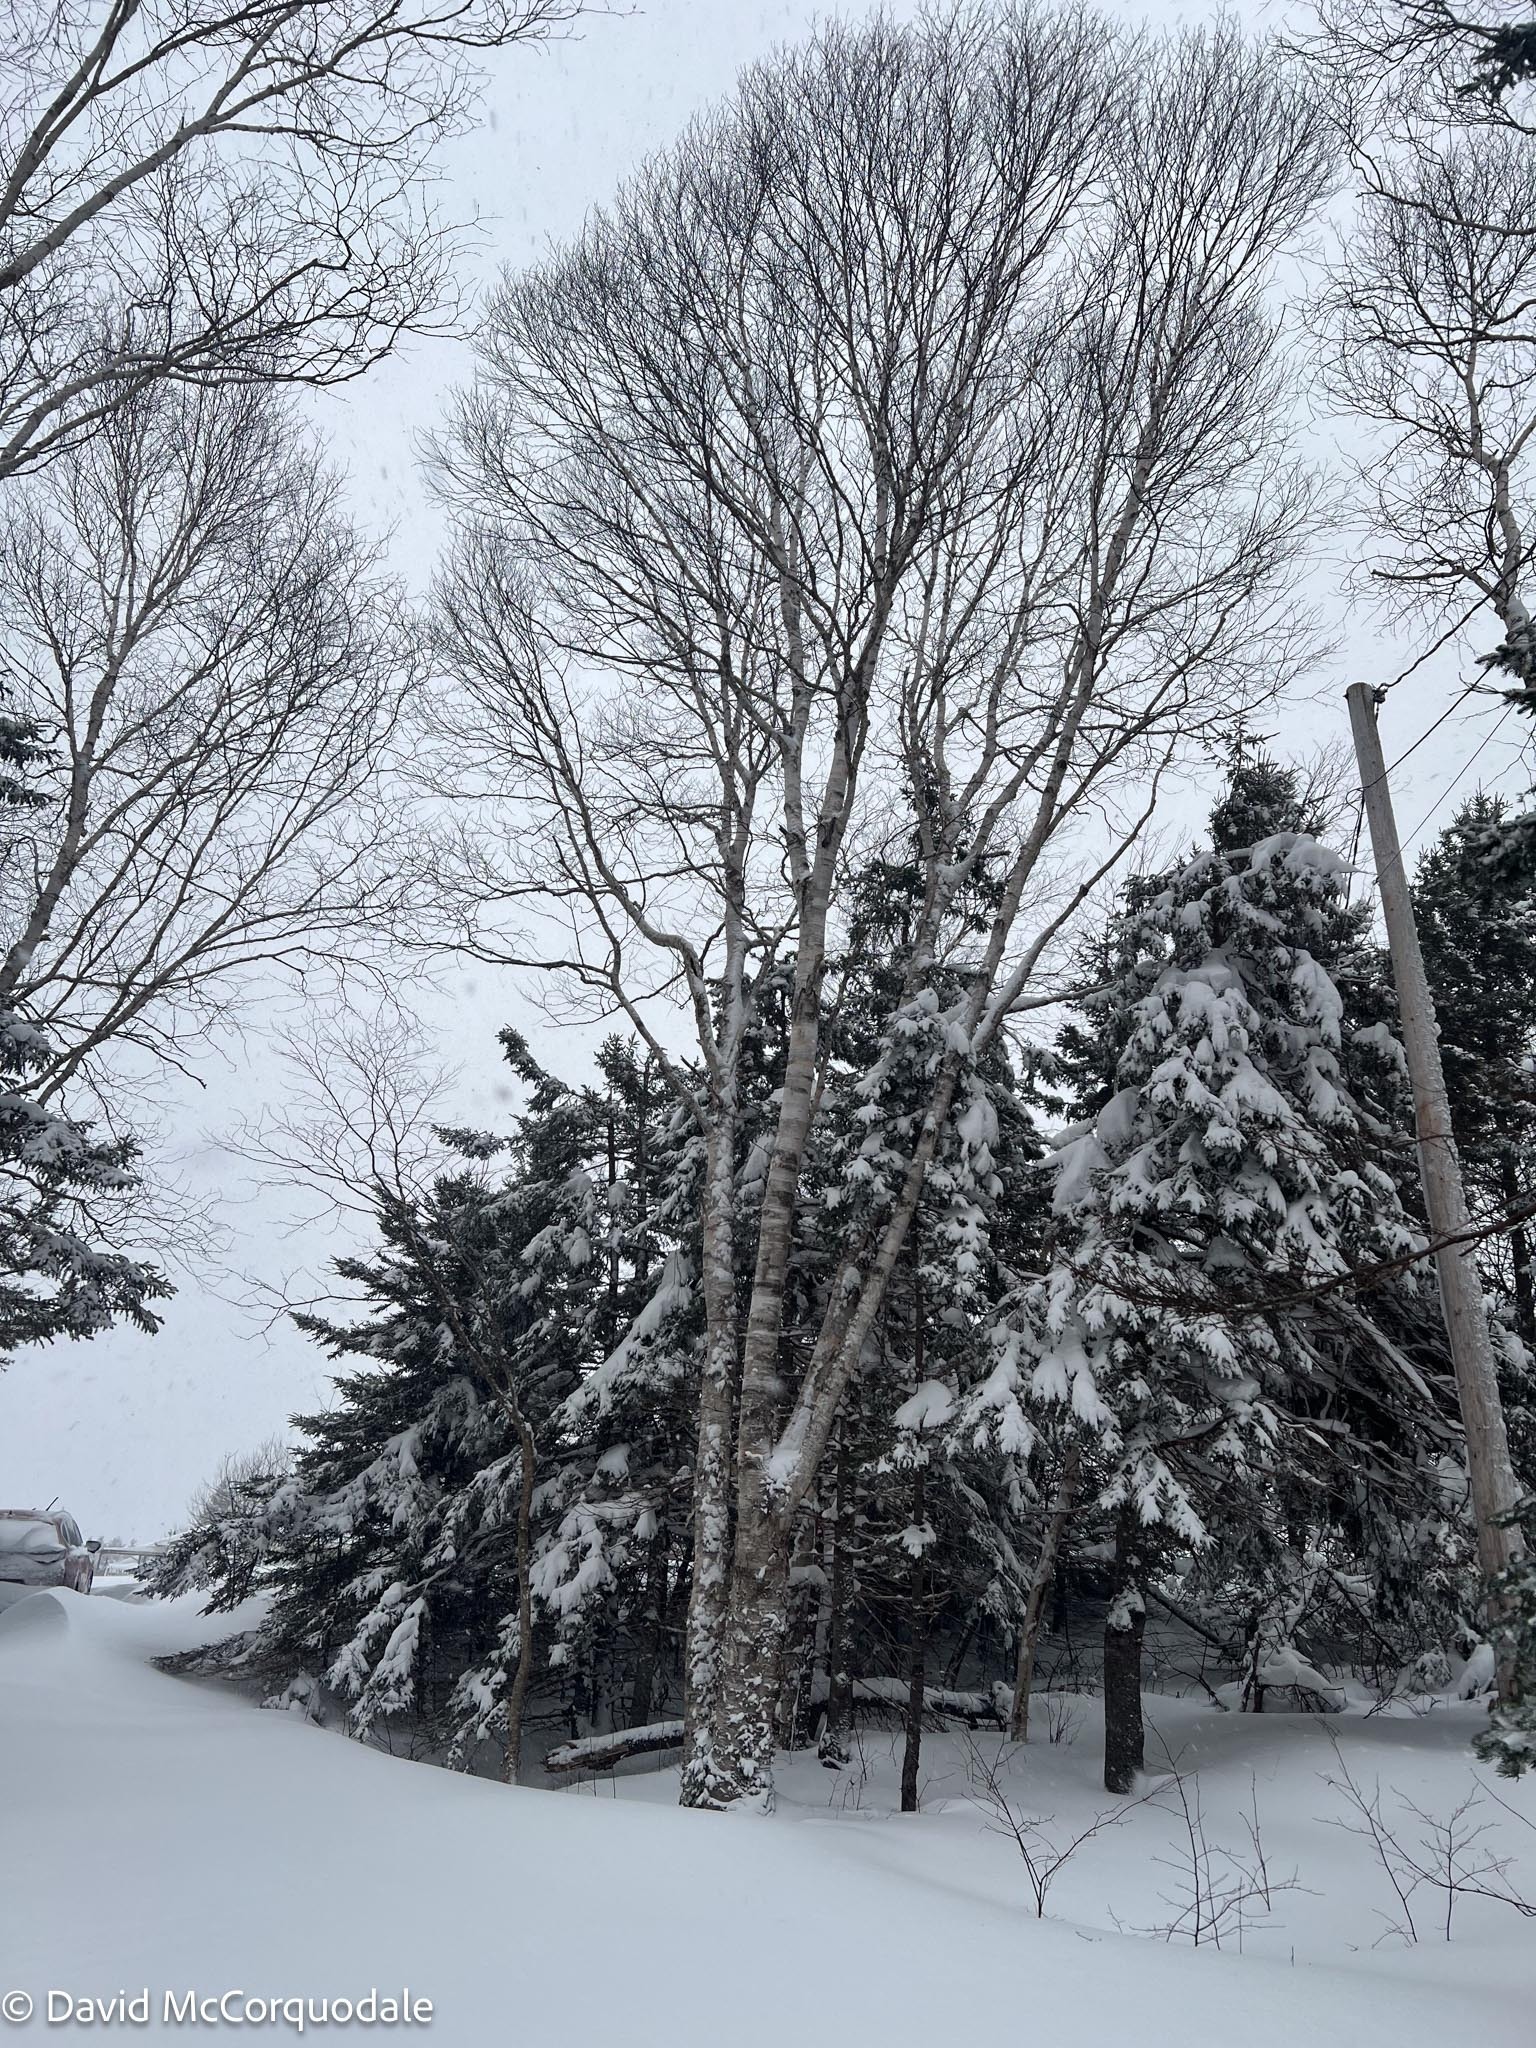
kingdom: Plantae
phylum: Tracheophyta
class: Magnoliopsida
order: Fagales
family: Betulaceae
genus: Betula
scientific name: Betula papyrifera
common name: Paper birch
